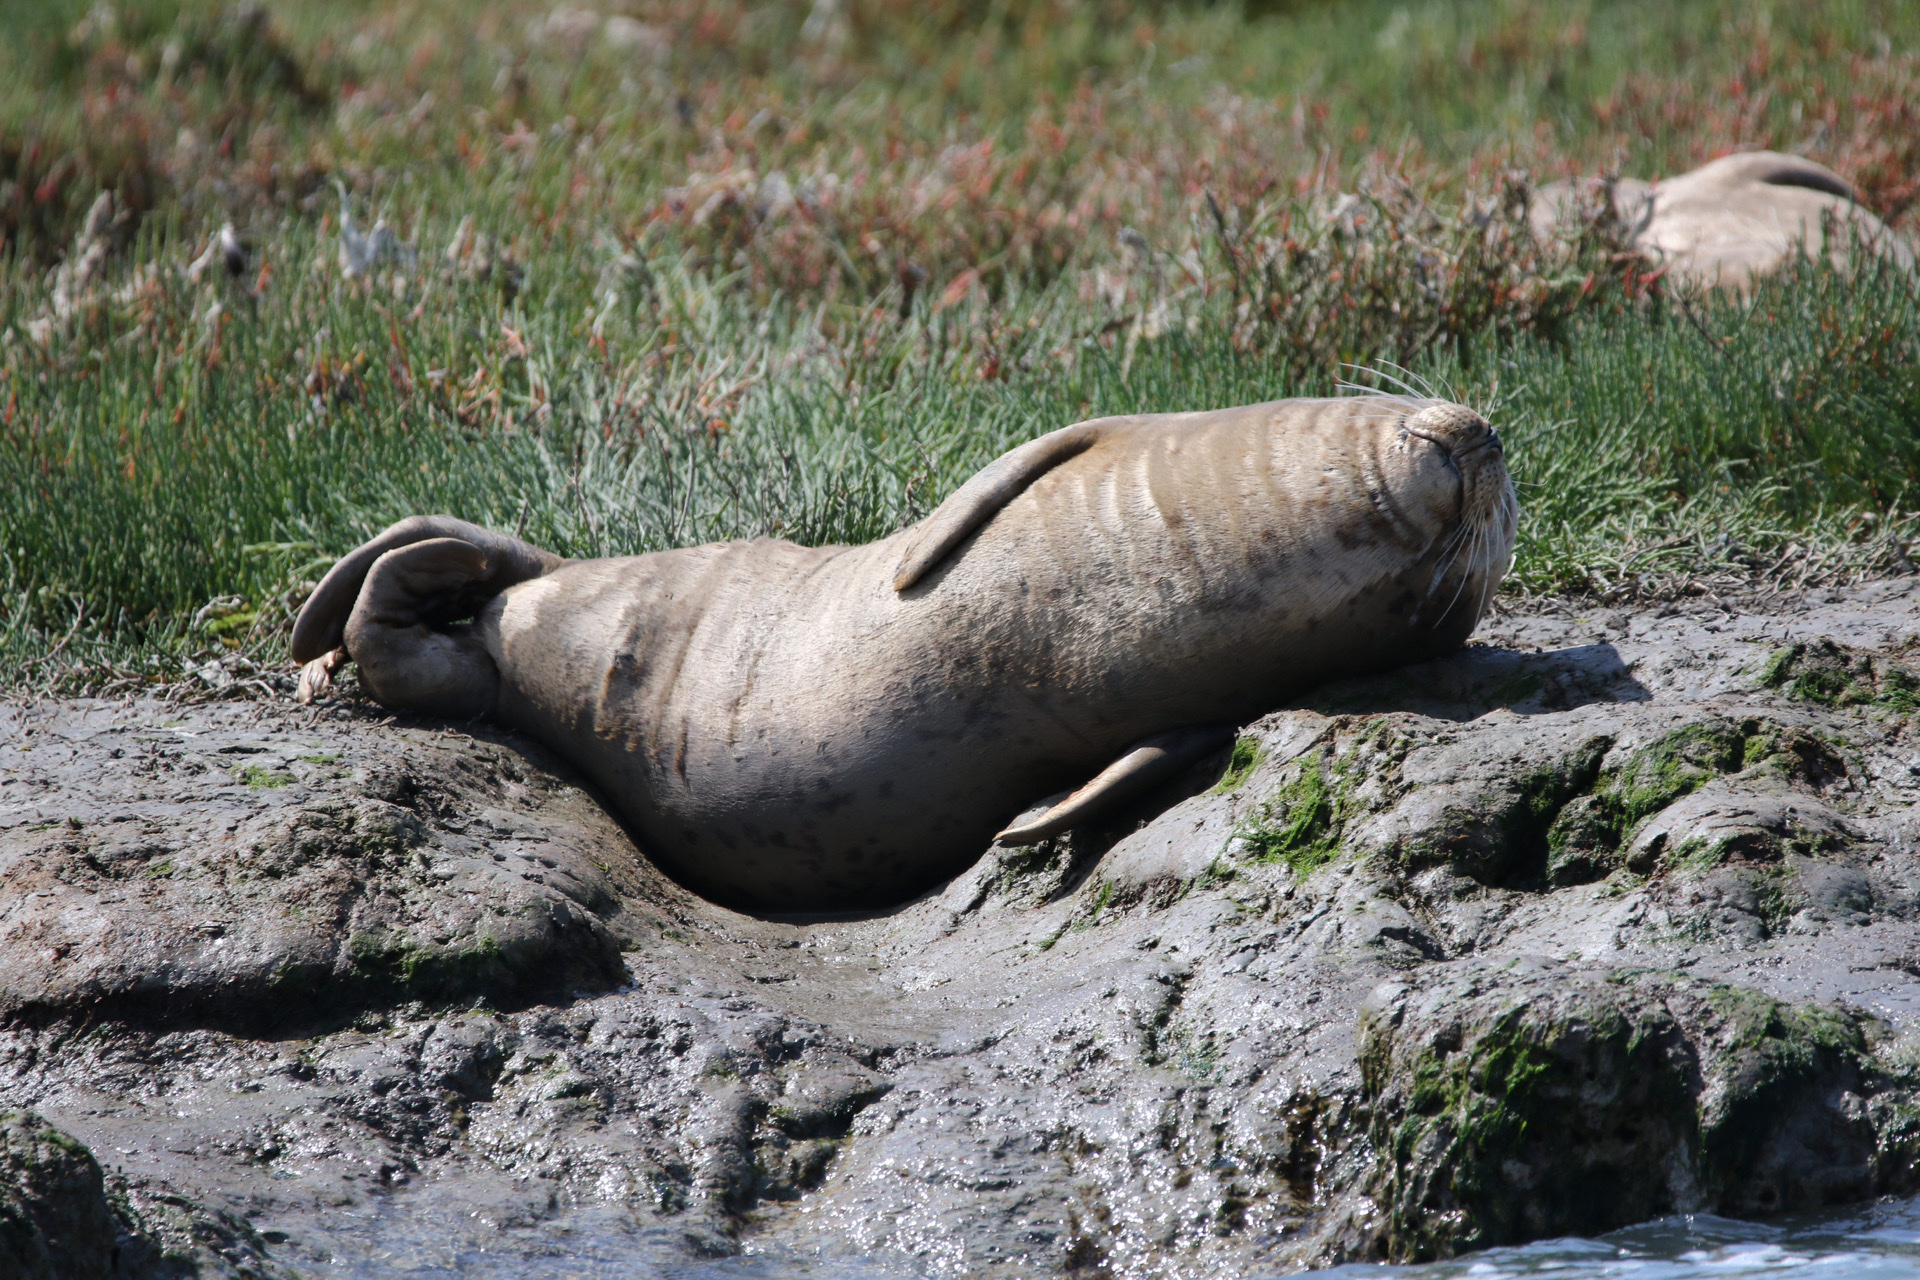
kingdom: Animalia
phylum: Chordata
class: Mammalia
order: Carnivora
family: Phocidae
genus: Phoca
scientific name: Phoca vitulina
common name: Harbor seal
